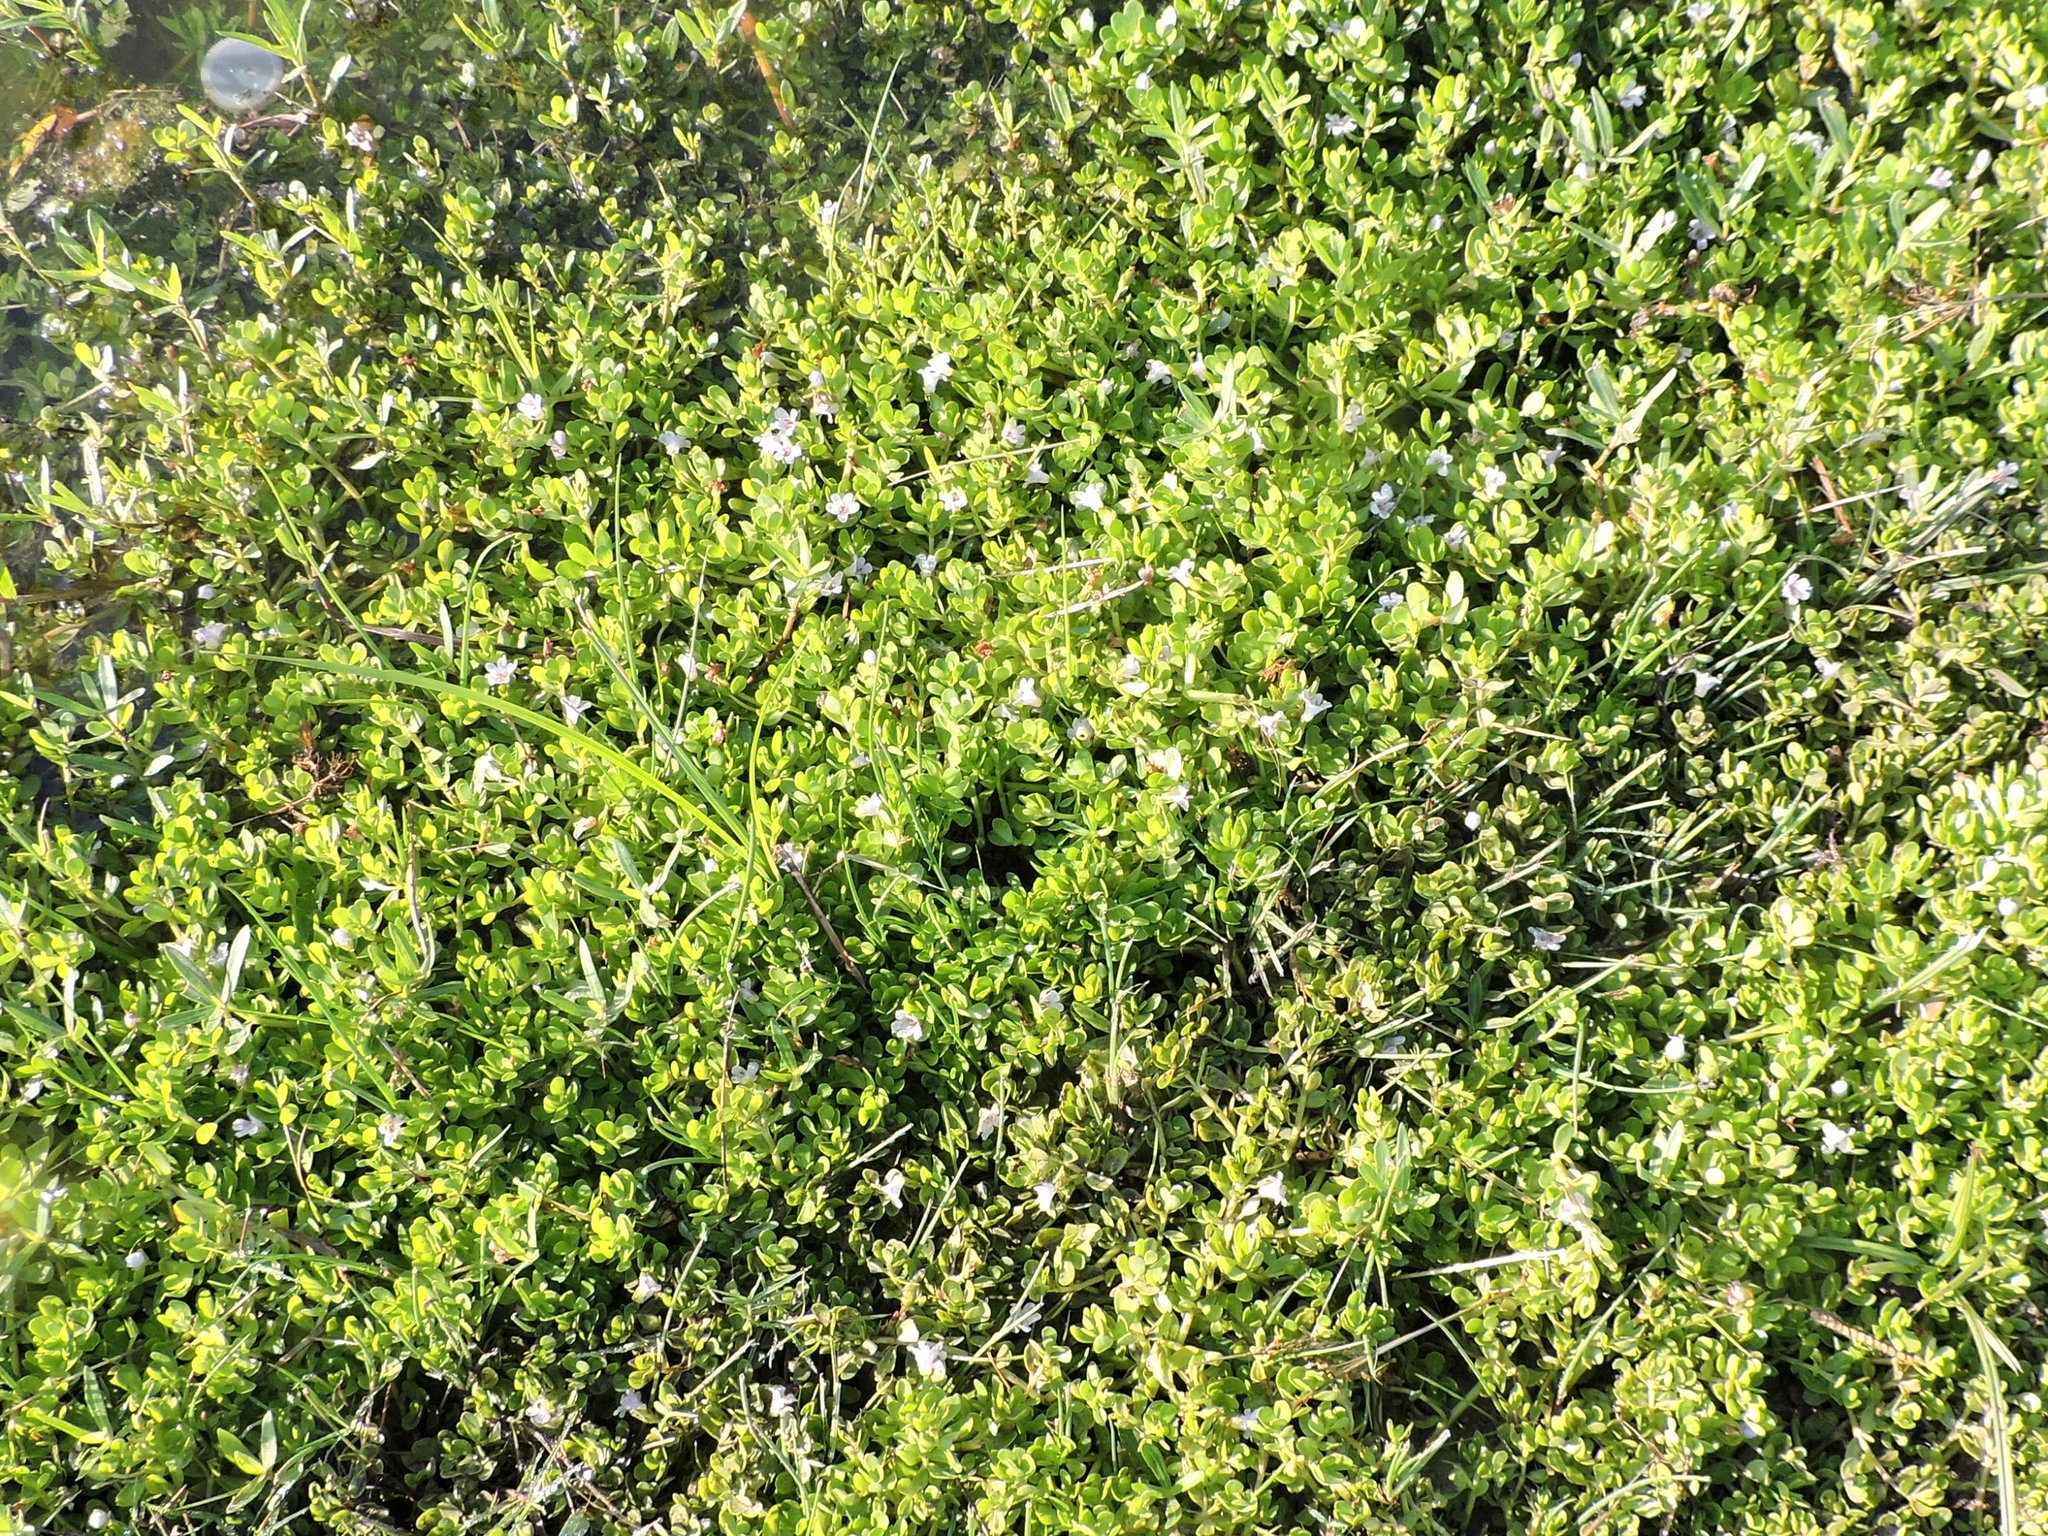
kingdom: Plantae
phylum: Tracheophyta
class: Magnoliopsida
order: Lamiales
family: Plantaginaceae
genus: Bacopa
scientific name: Bacopa monnieri
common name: Indian-pennywort
